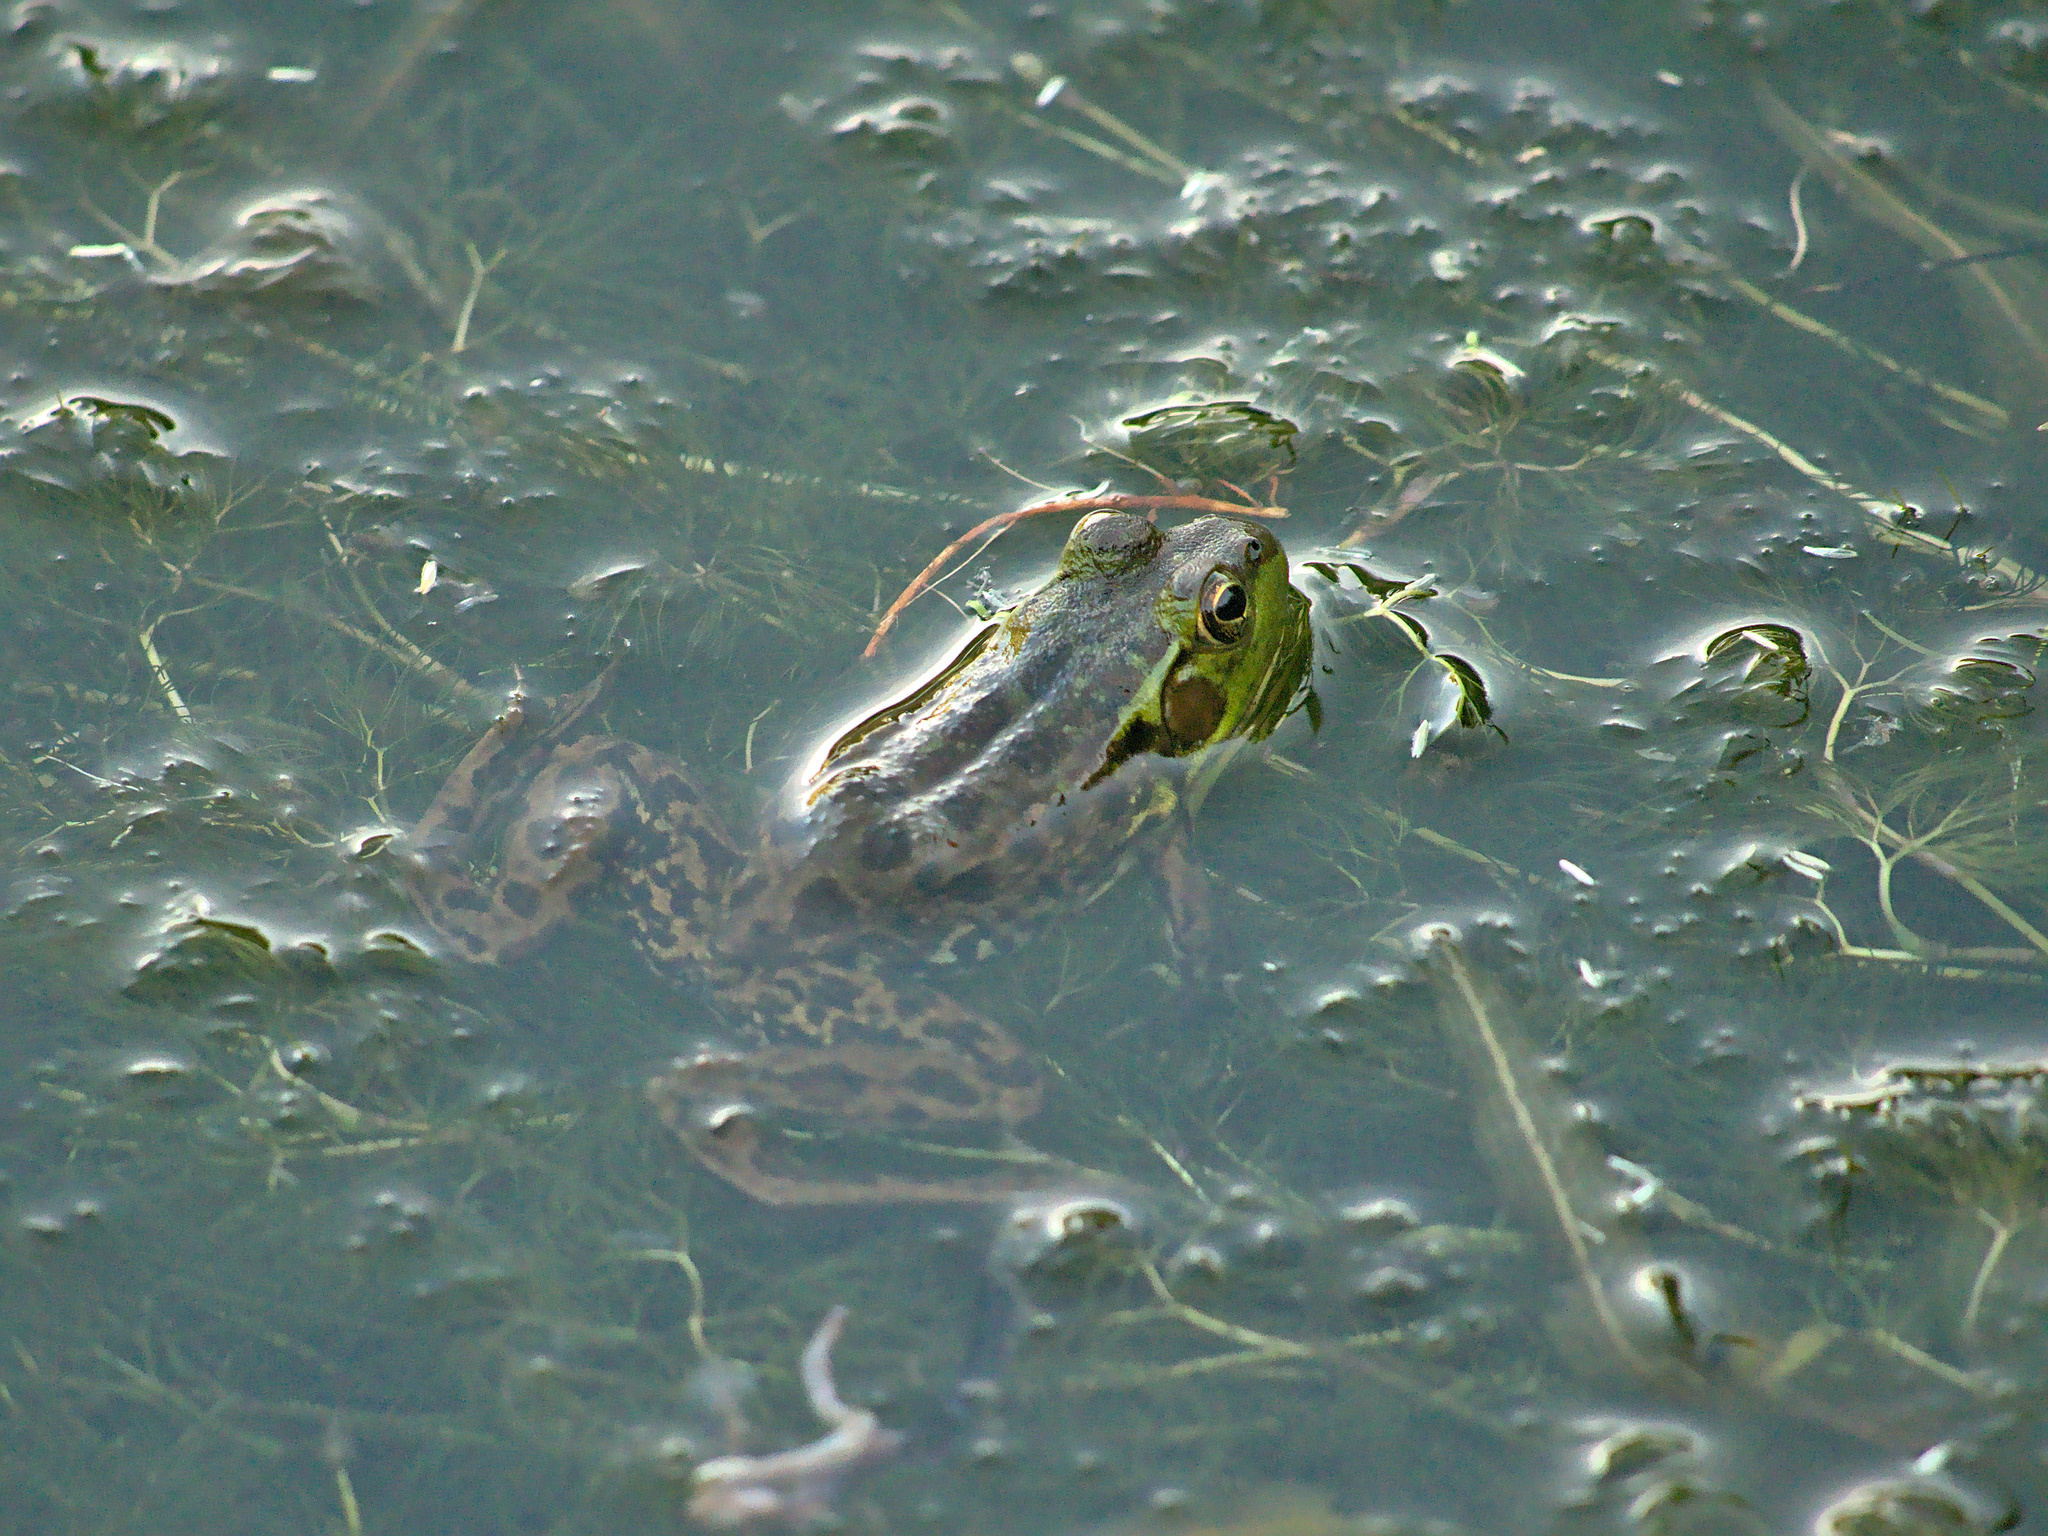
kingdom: Animalia
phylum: Chordata
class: Amphibia
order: Anura
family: Ranidae
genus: Lithobates
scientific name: Lithobates septentrionalis
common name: Mink frog
